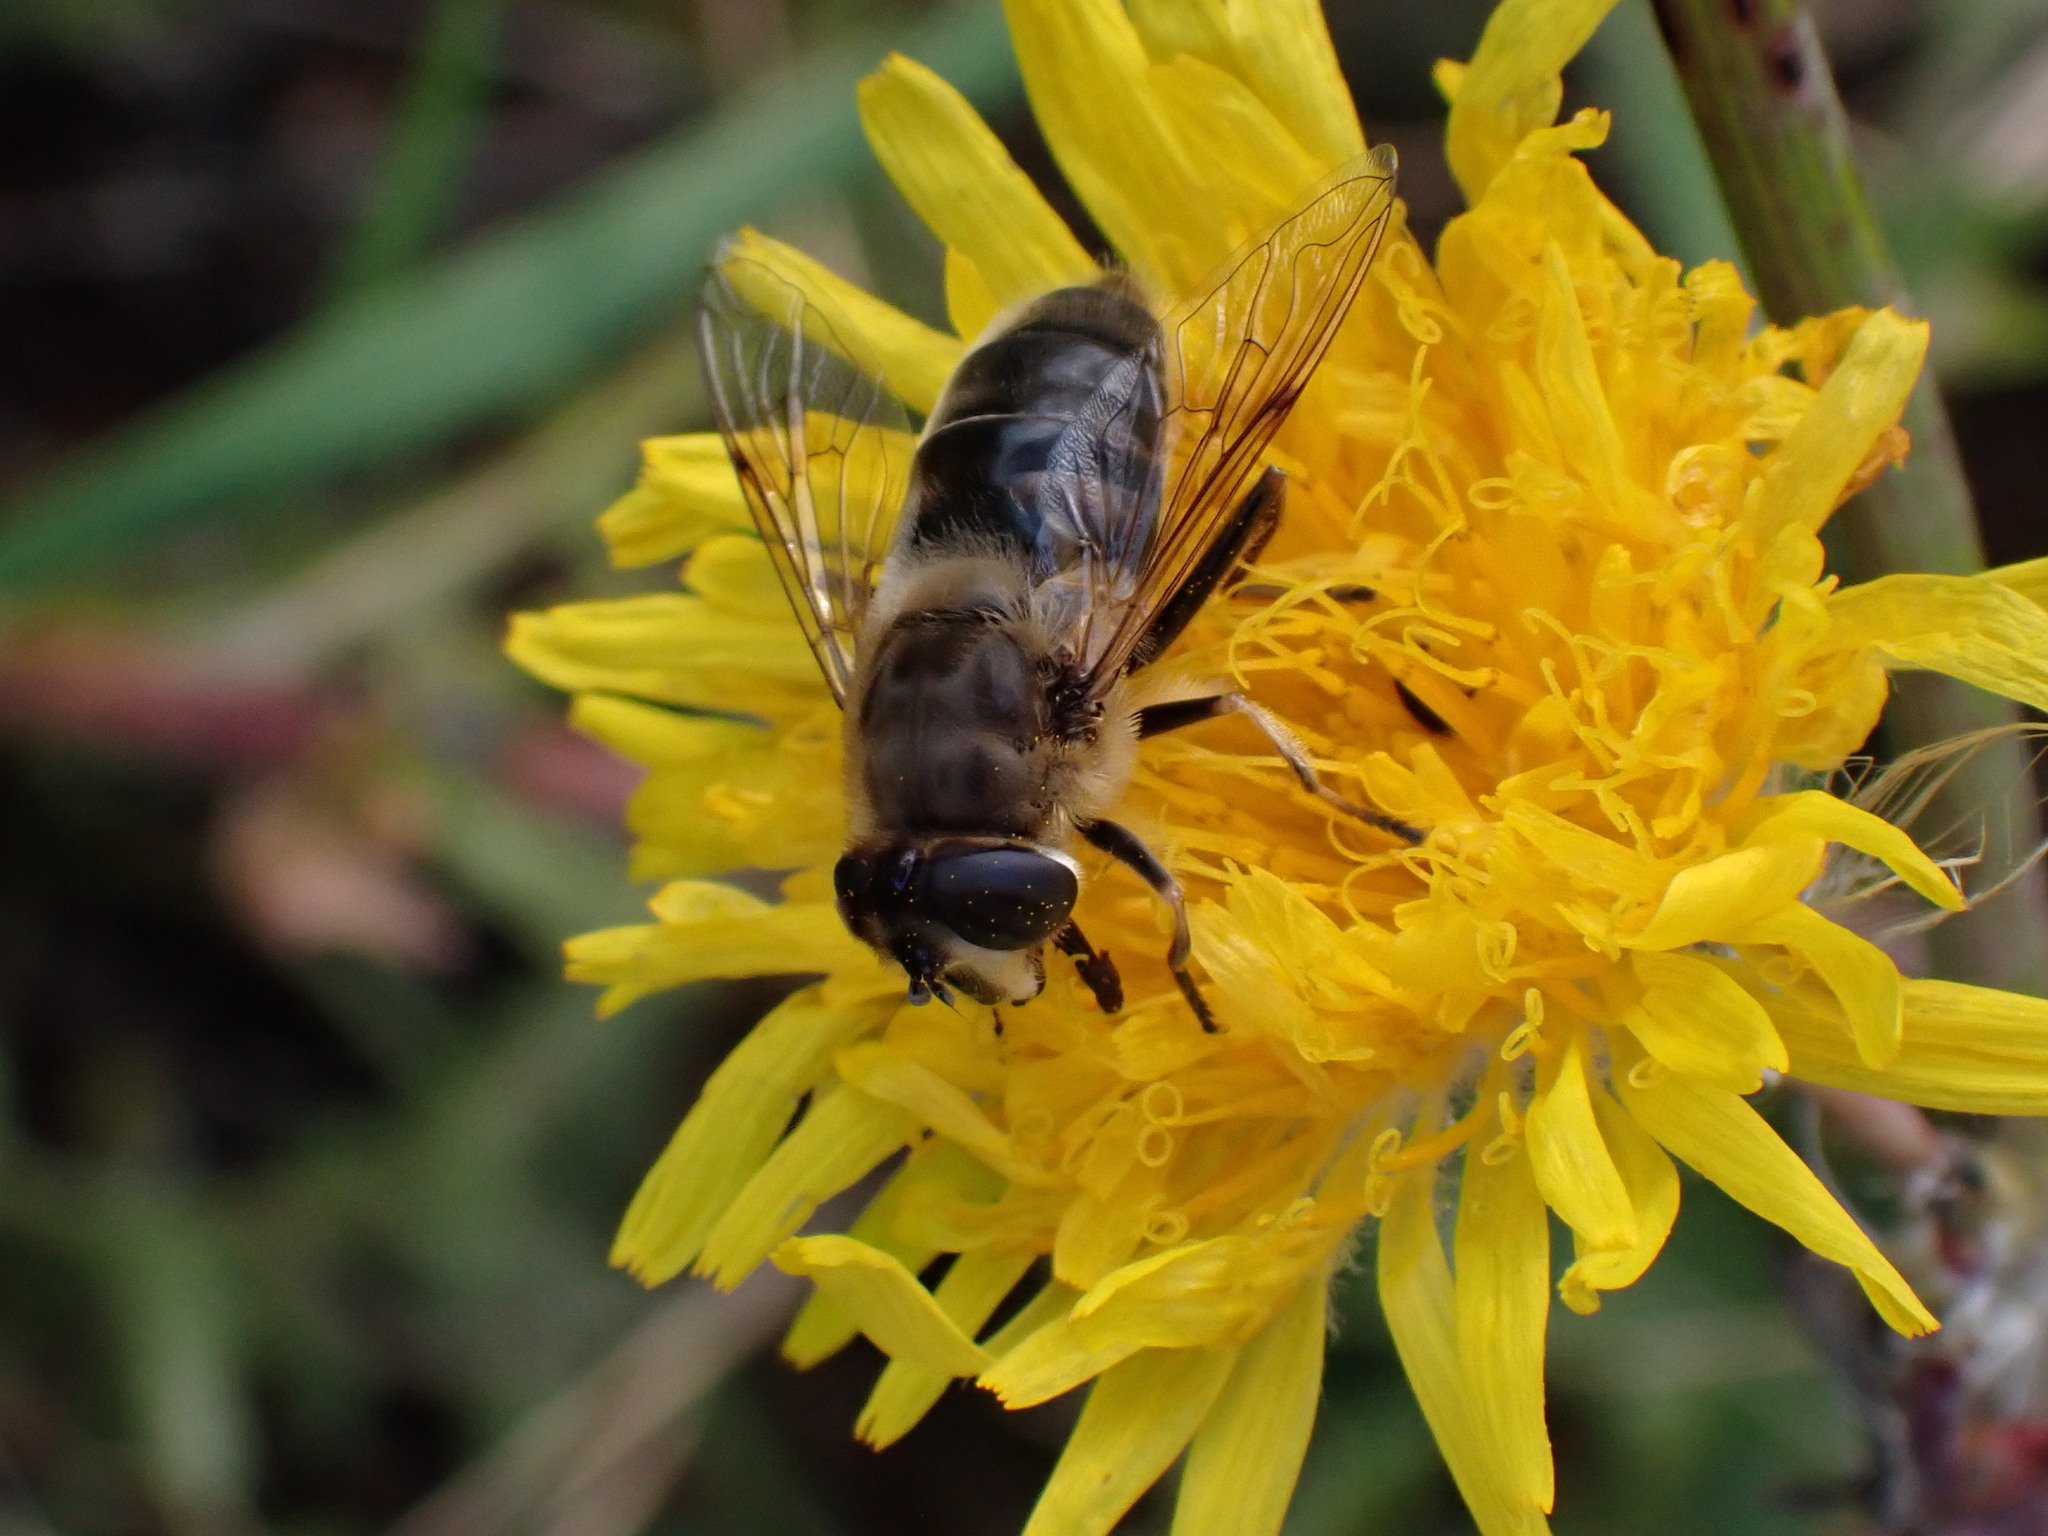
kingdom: Animalia
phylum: Arthropoda
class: Insecta
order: Diptera
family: Syrphidae
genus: Eristalis
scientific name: Eristalis tenax
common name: Drone fly
